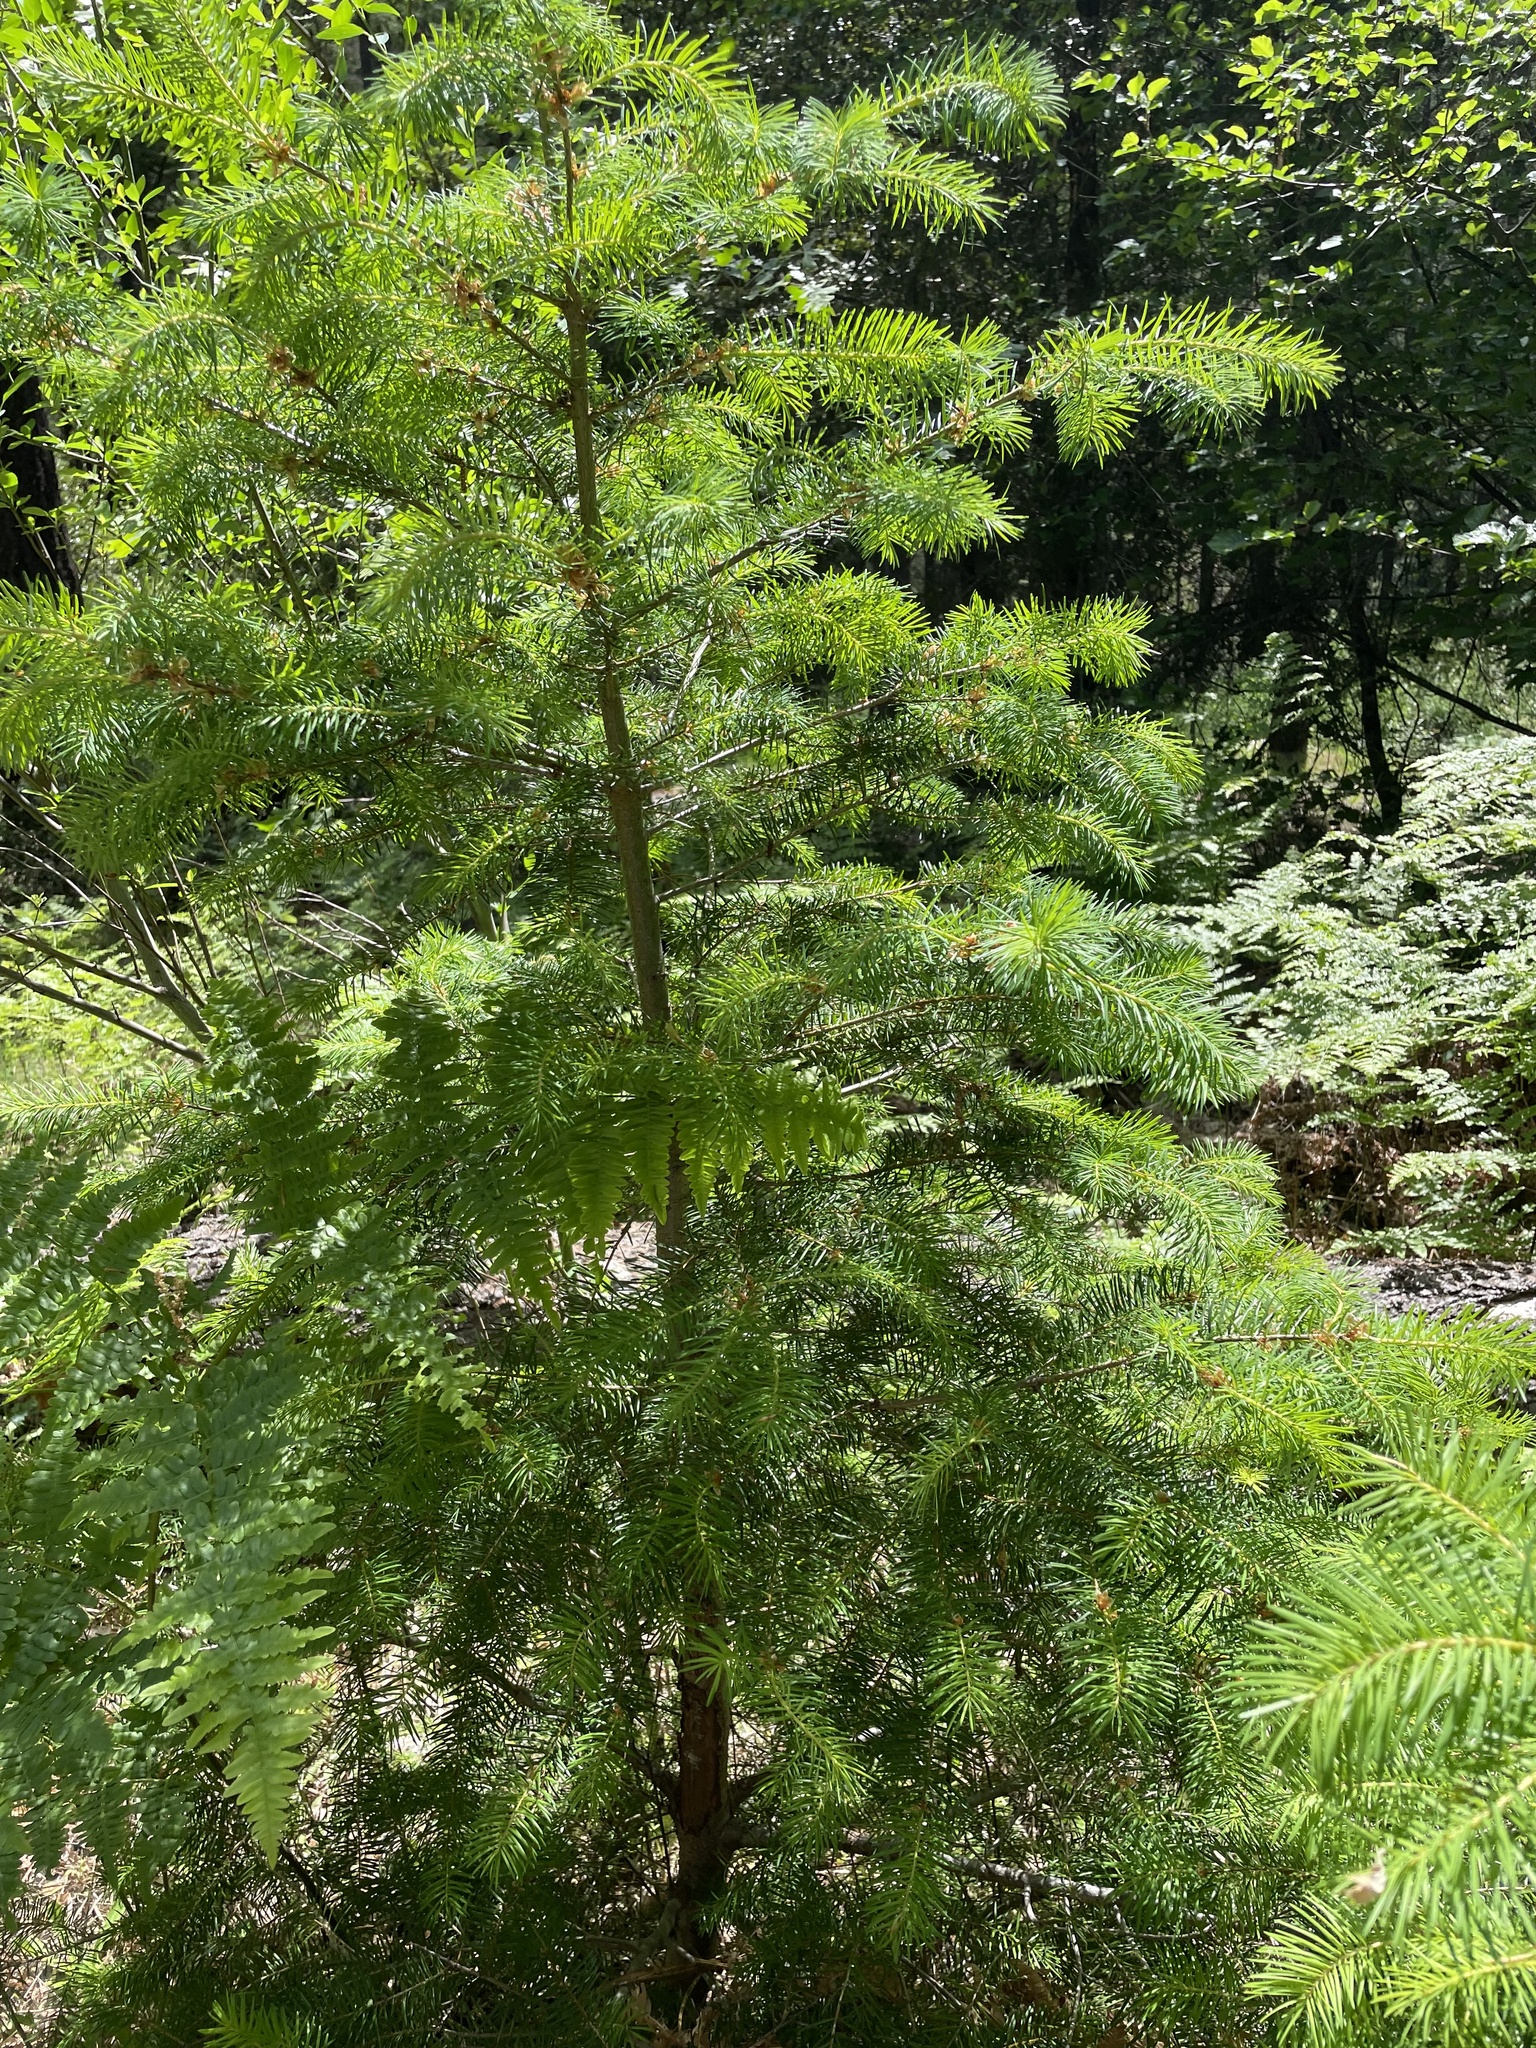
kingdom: Plantae
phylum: Tracheophyta
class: Pinopsida
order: Pinales
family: Pinaceae
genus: Pseudotsuga
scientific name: Pseudotsuga menziesii
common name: Douglas fir
